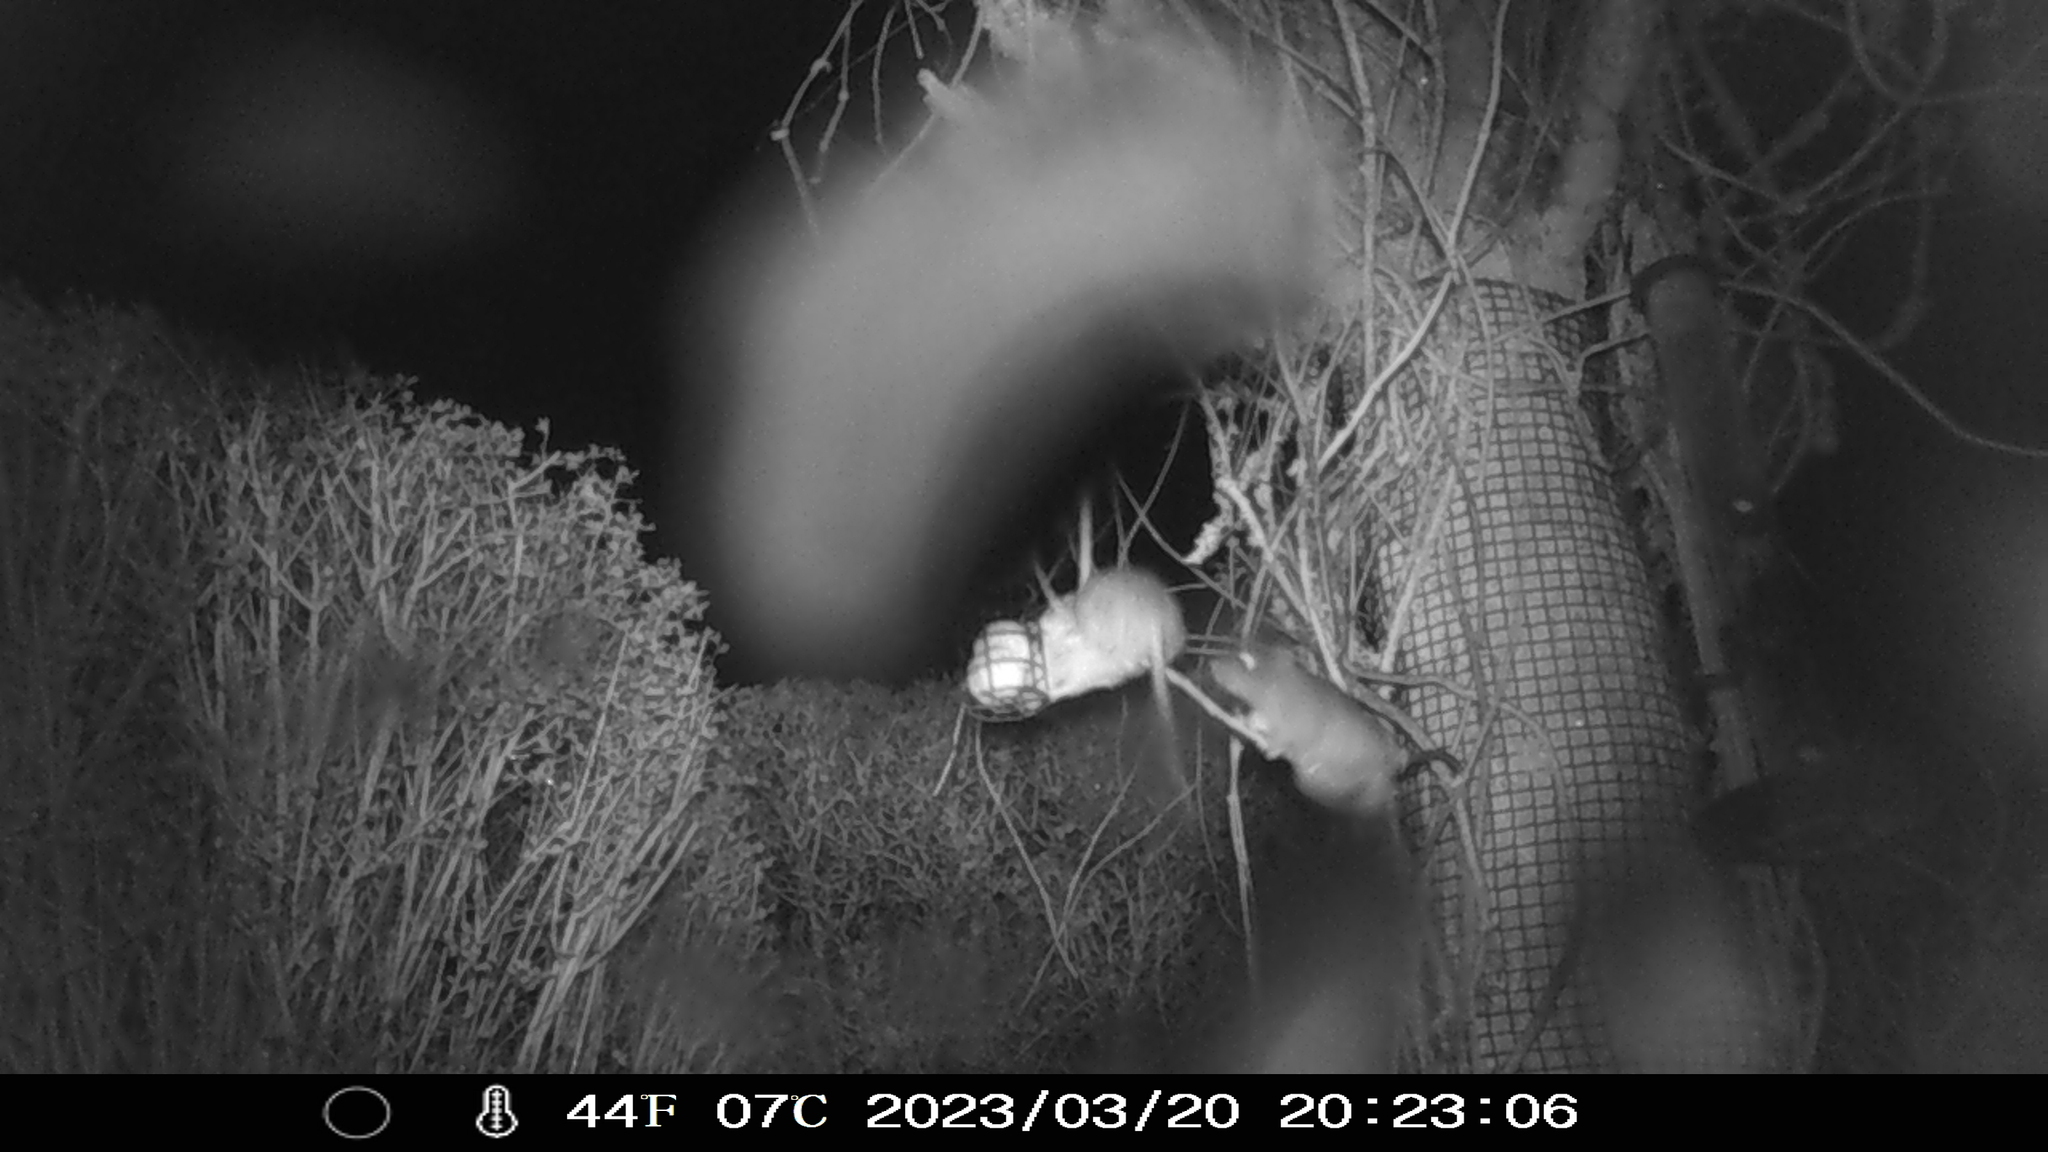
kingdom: Animalia
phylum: Chordata
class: Mammalia
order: Rodentia
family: Muridae
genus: Rattus
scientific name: Rattus norvegicus
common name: Brown rat
